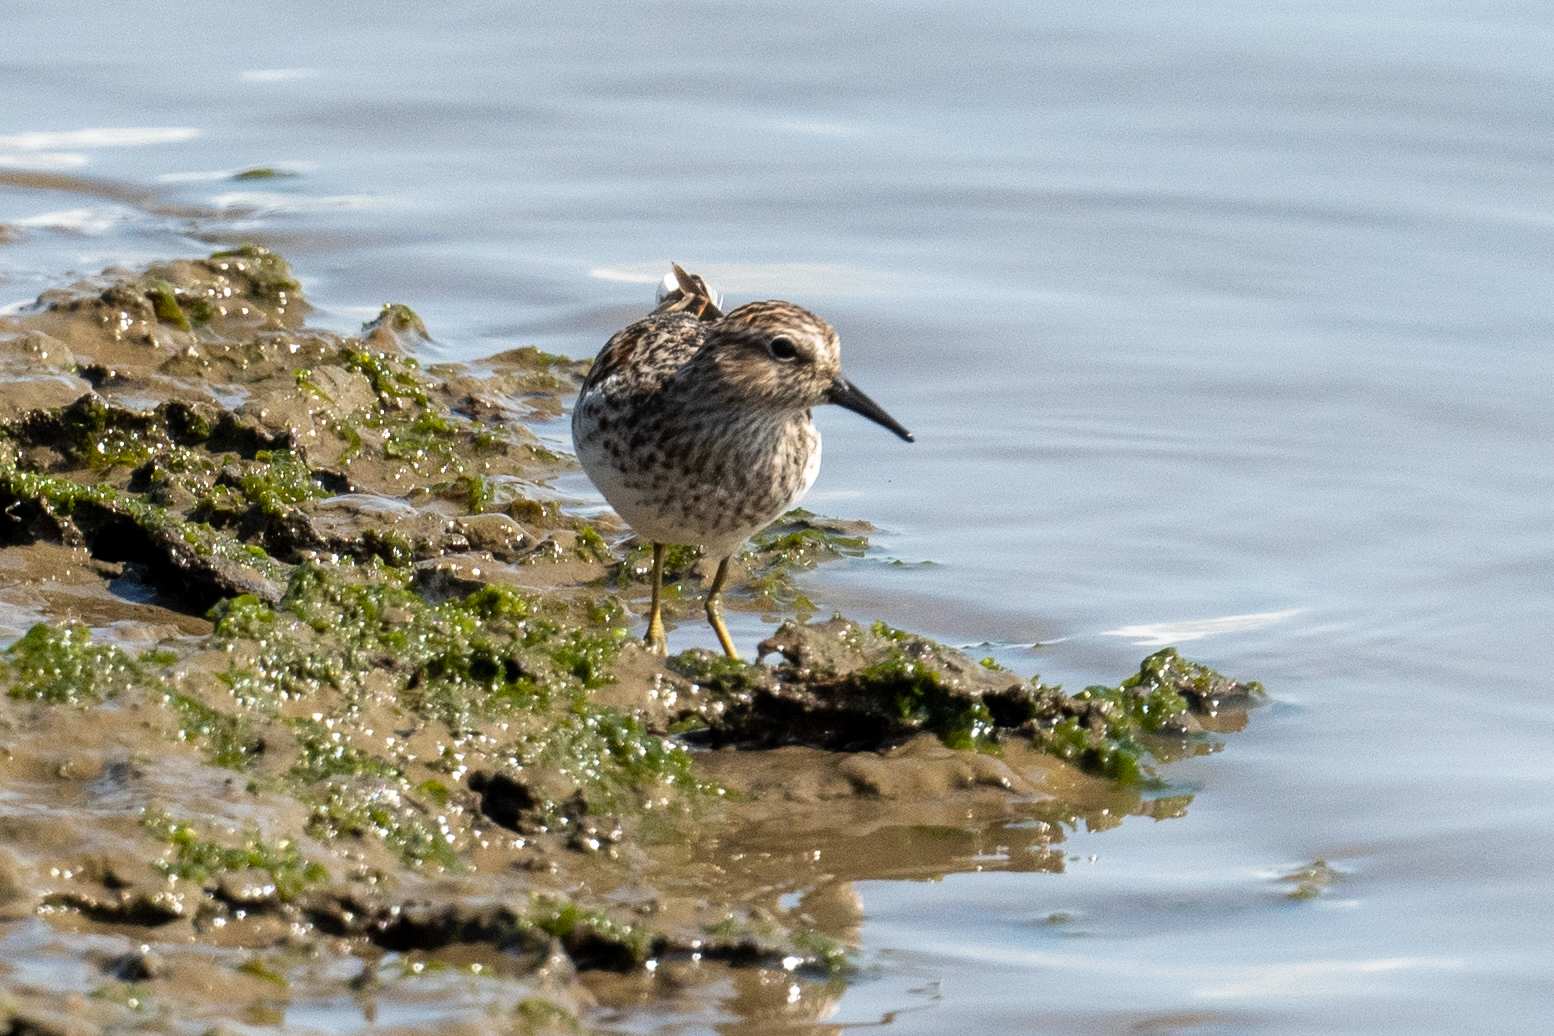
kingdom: Animalia
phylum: Chordata
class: Aves
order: Charadriiformes
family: Scolopacidae
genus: Calidris
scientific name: Calidris minutilla
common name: Least sandpiper
